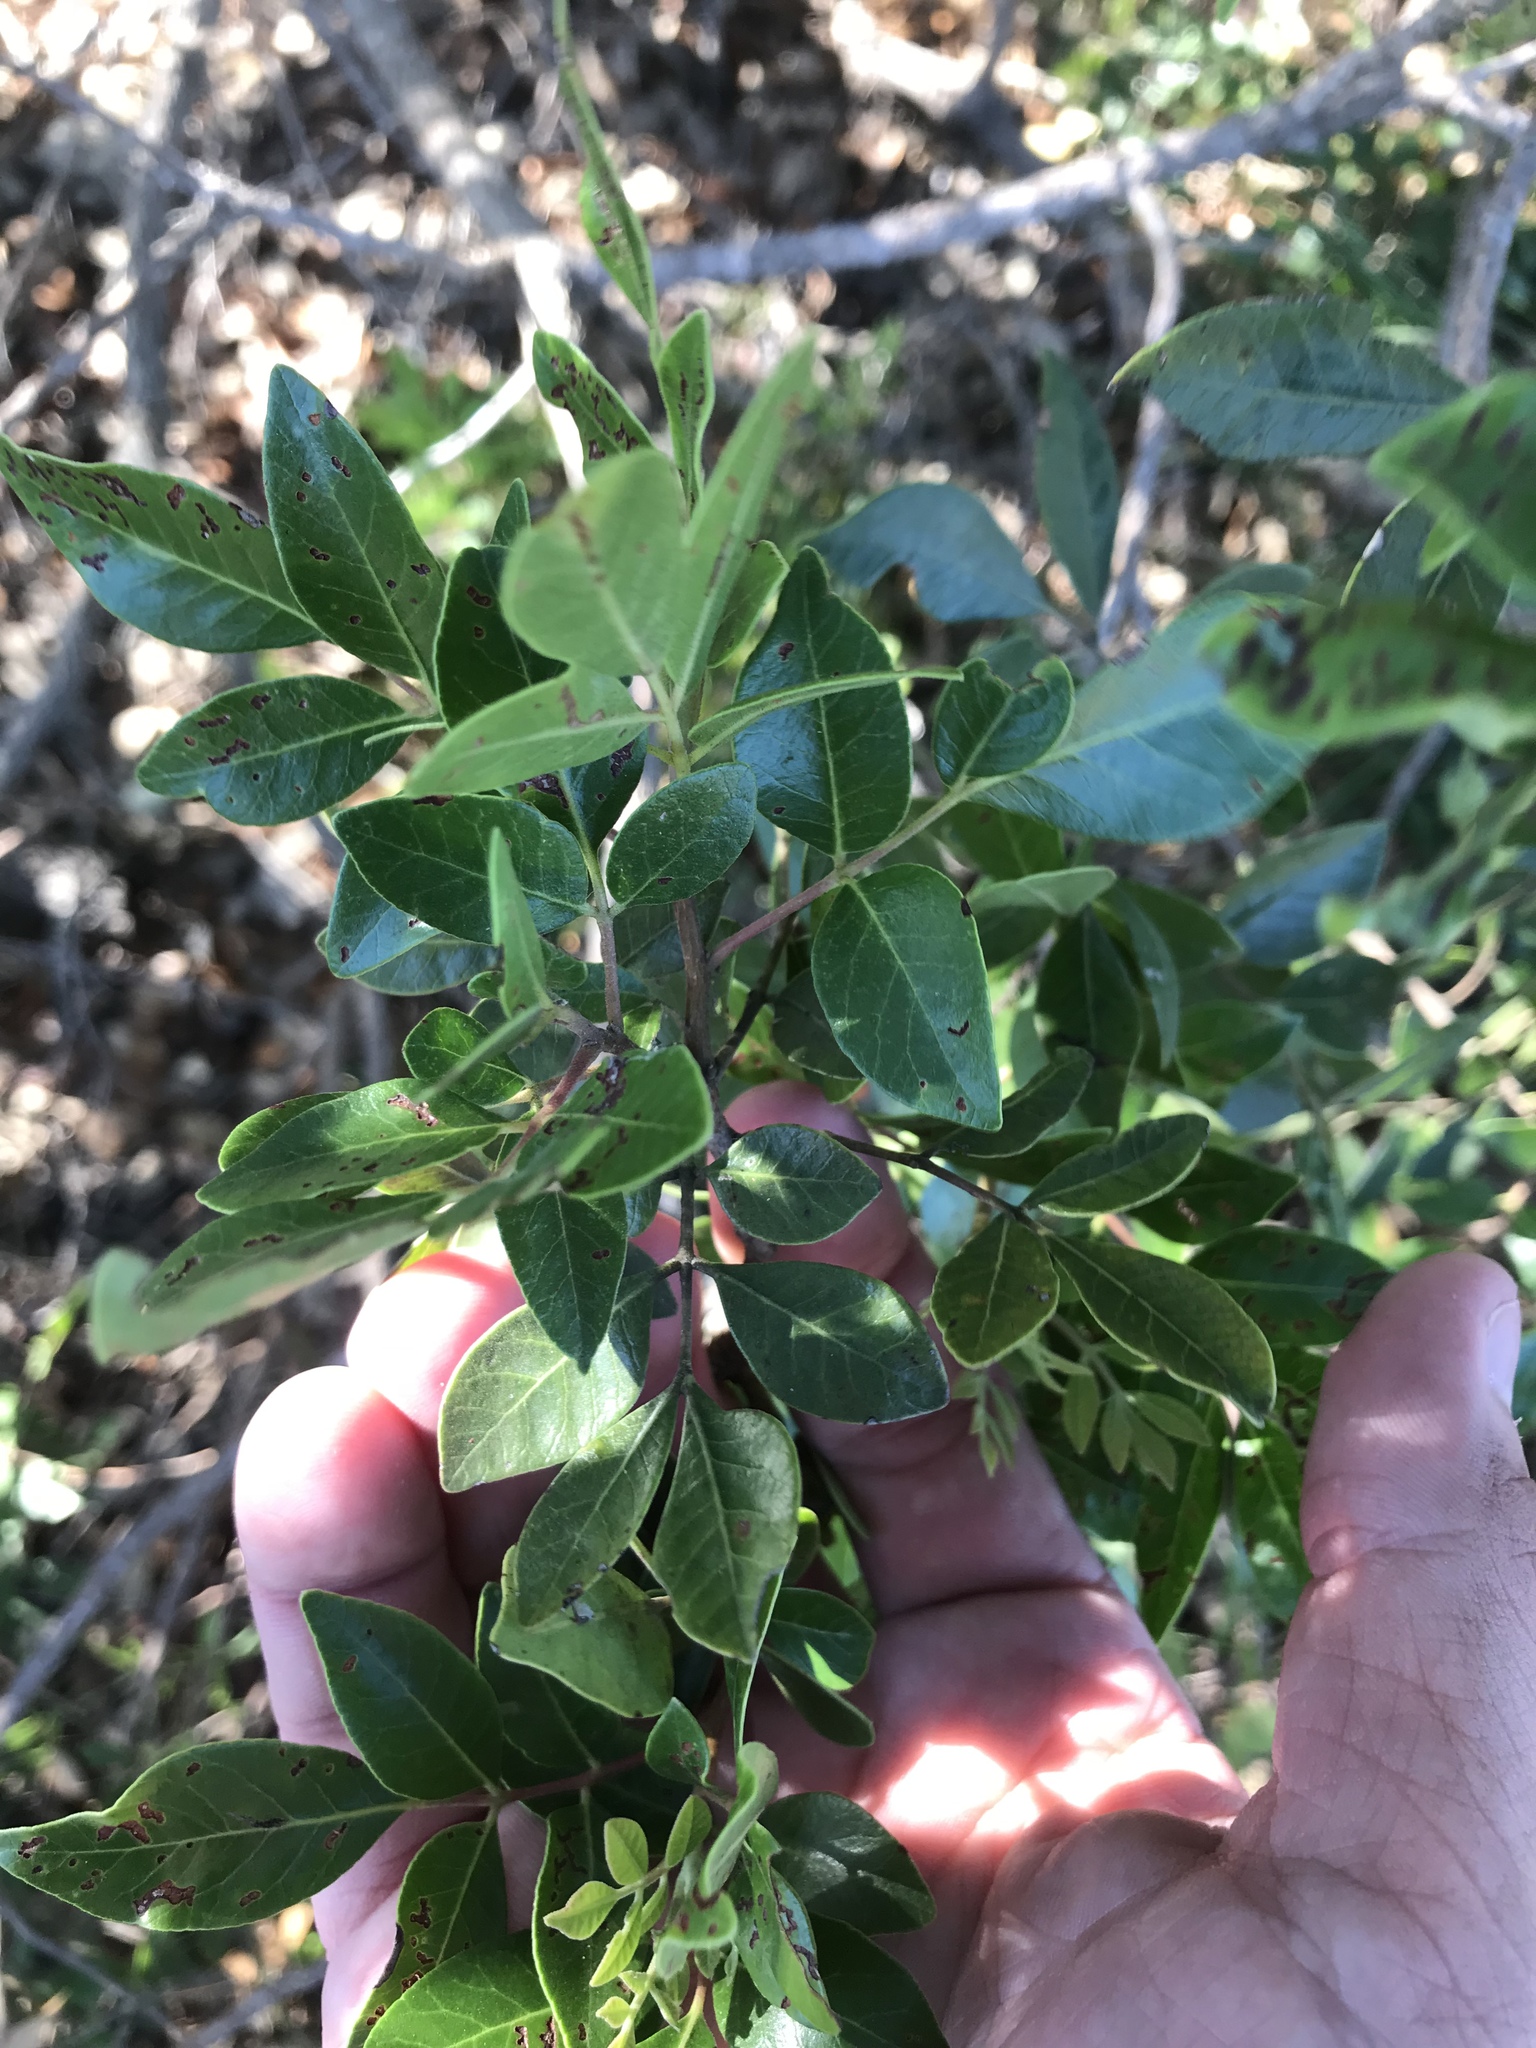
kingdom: Plantae
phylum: Tracheophyta
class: Magnoliopsida
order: Sapindales
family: Anacardiaceae
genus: Rhus
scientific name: Rhus virens
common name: Evergreen sumac
